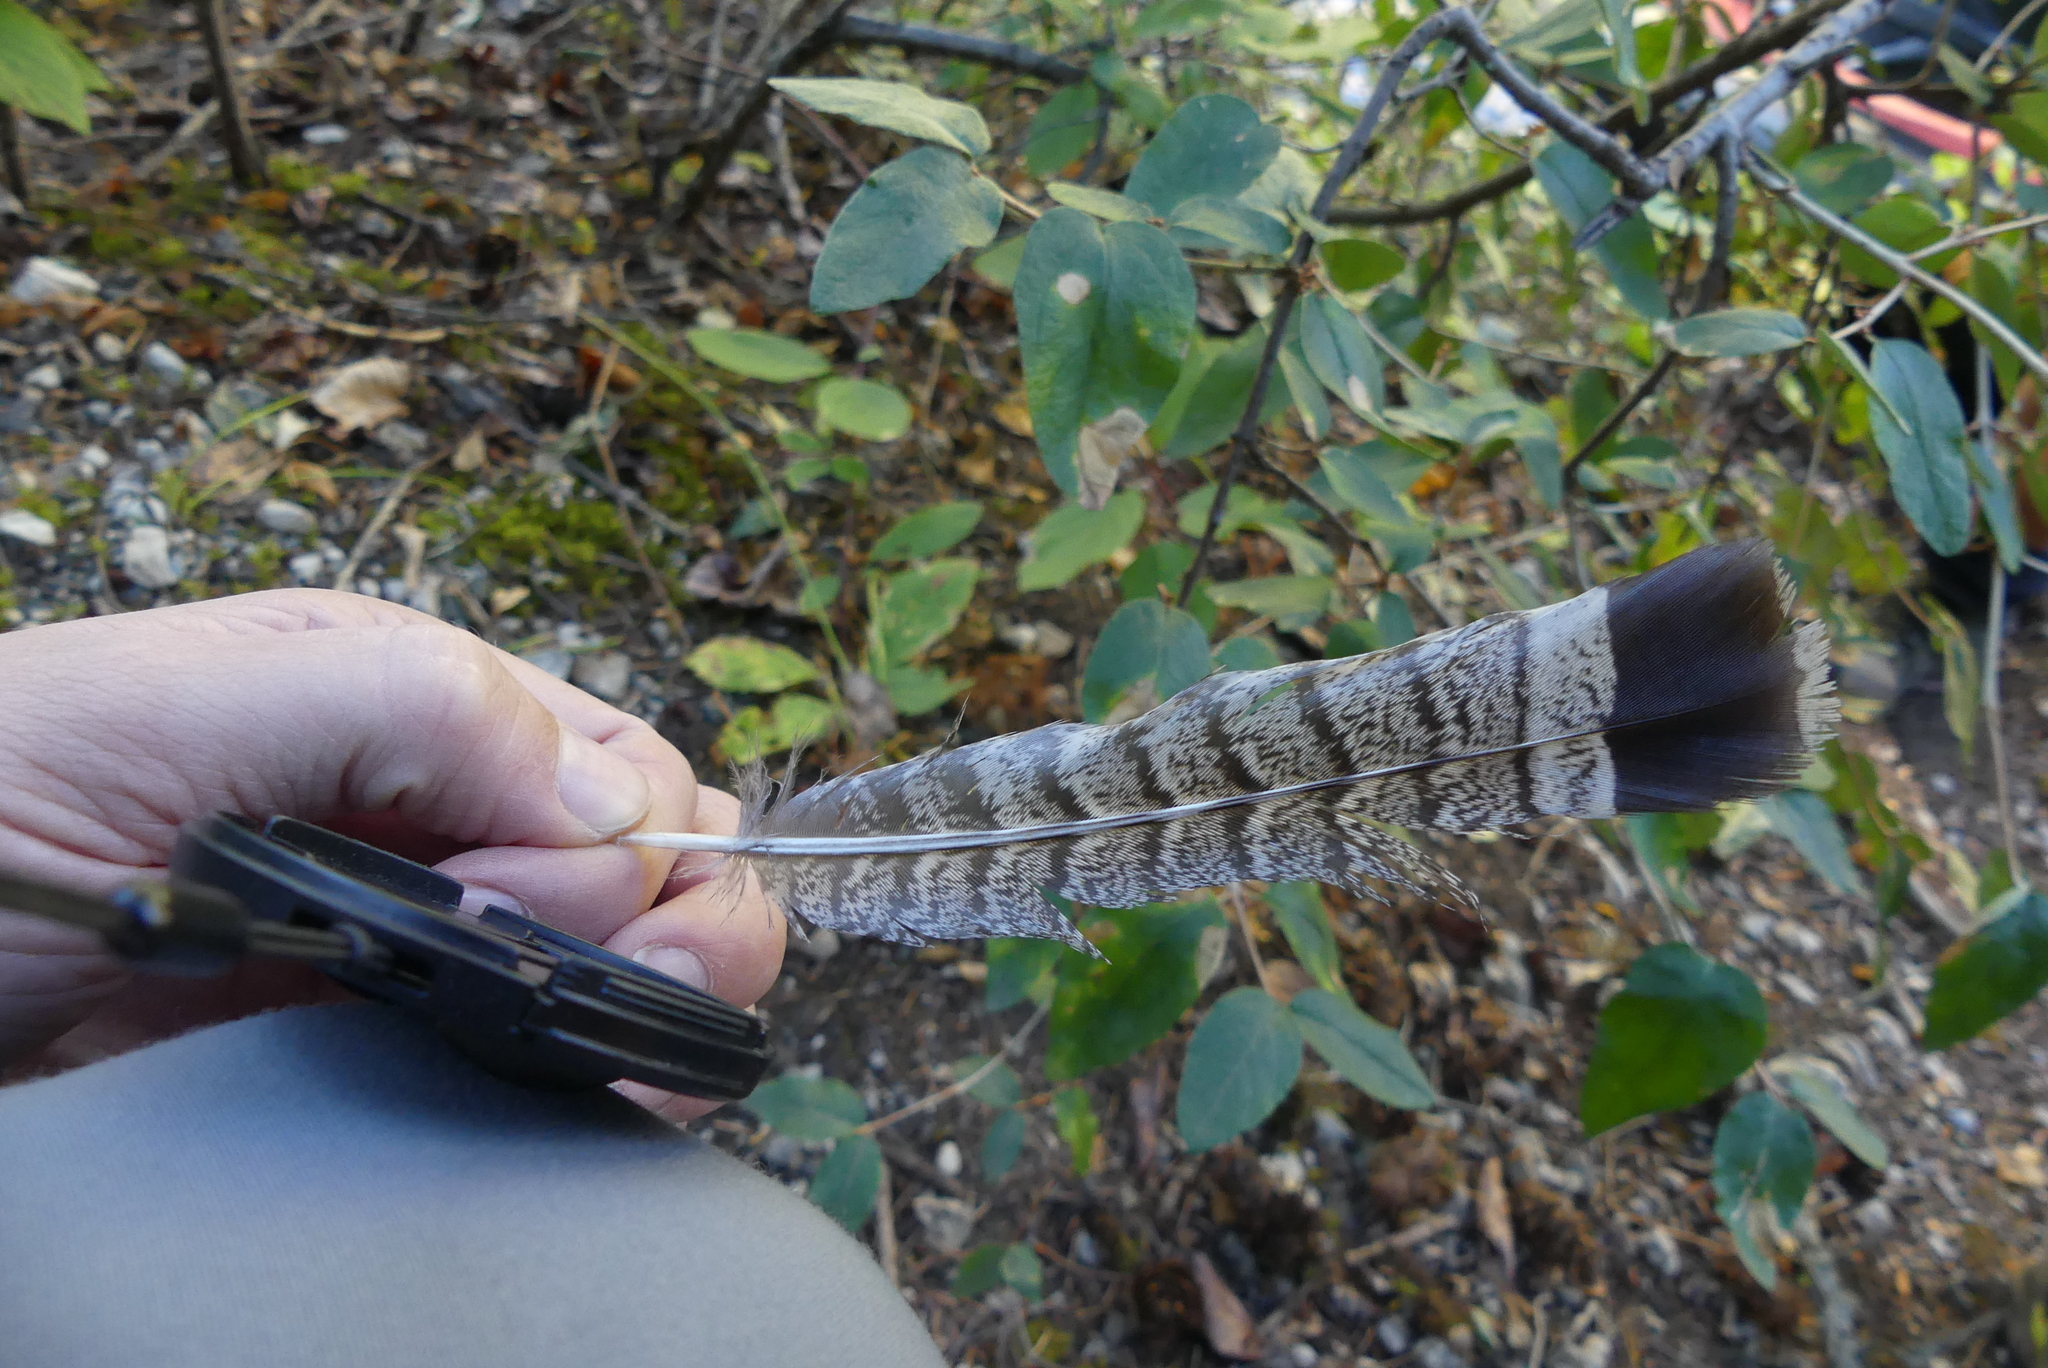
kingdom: Animalia
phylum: Chordata
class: Aves
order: Galliformes
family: Phasianidae
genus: Bonasa
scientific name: Bonasa umbellus
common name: Ruffed grouse
